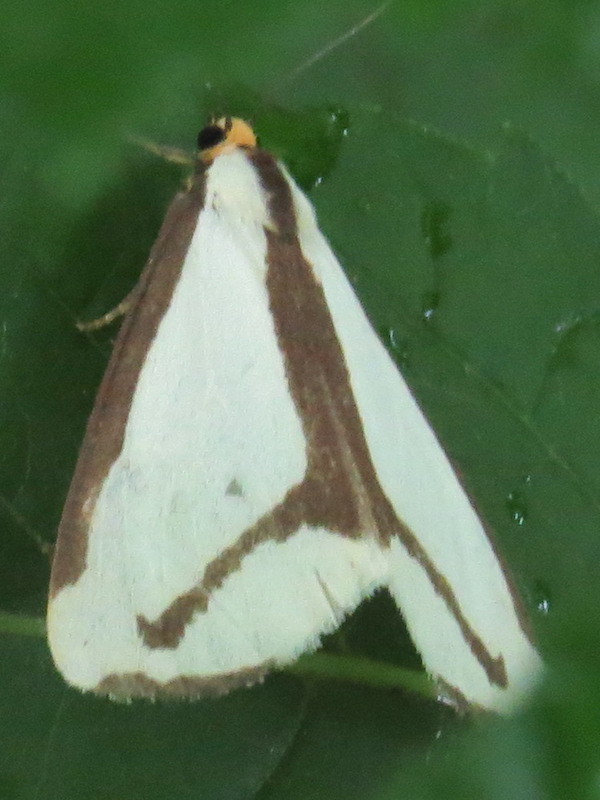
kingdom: Animalia
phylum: Arthropoda
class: Insecta
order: Lepidoptera
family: Erebidae
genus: Haploa
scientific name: Haploa lecontei
